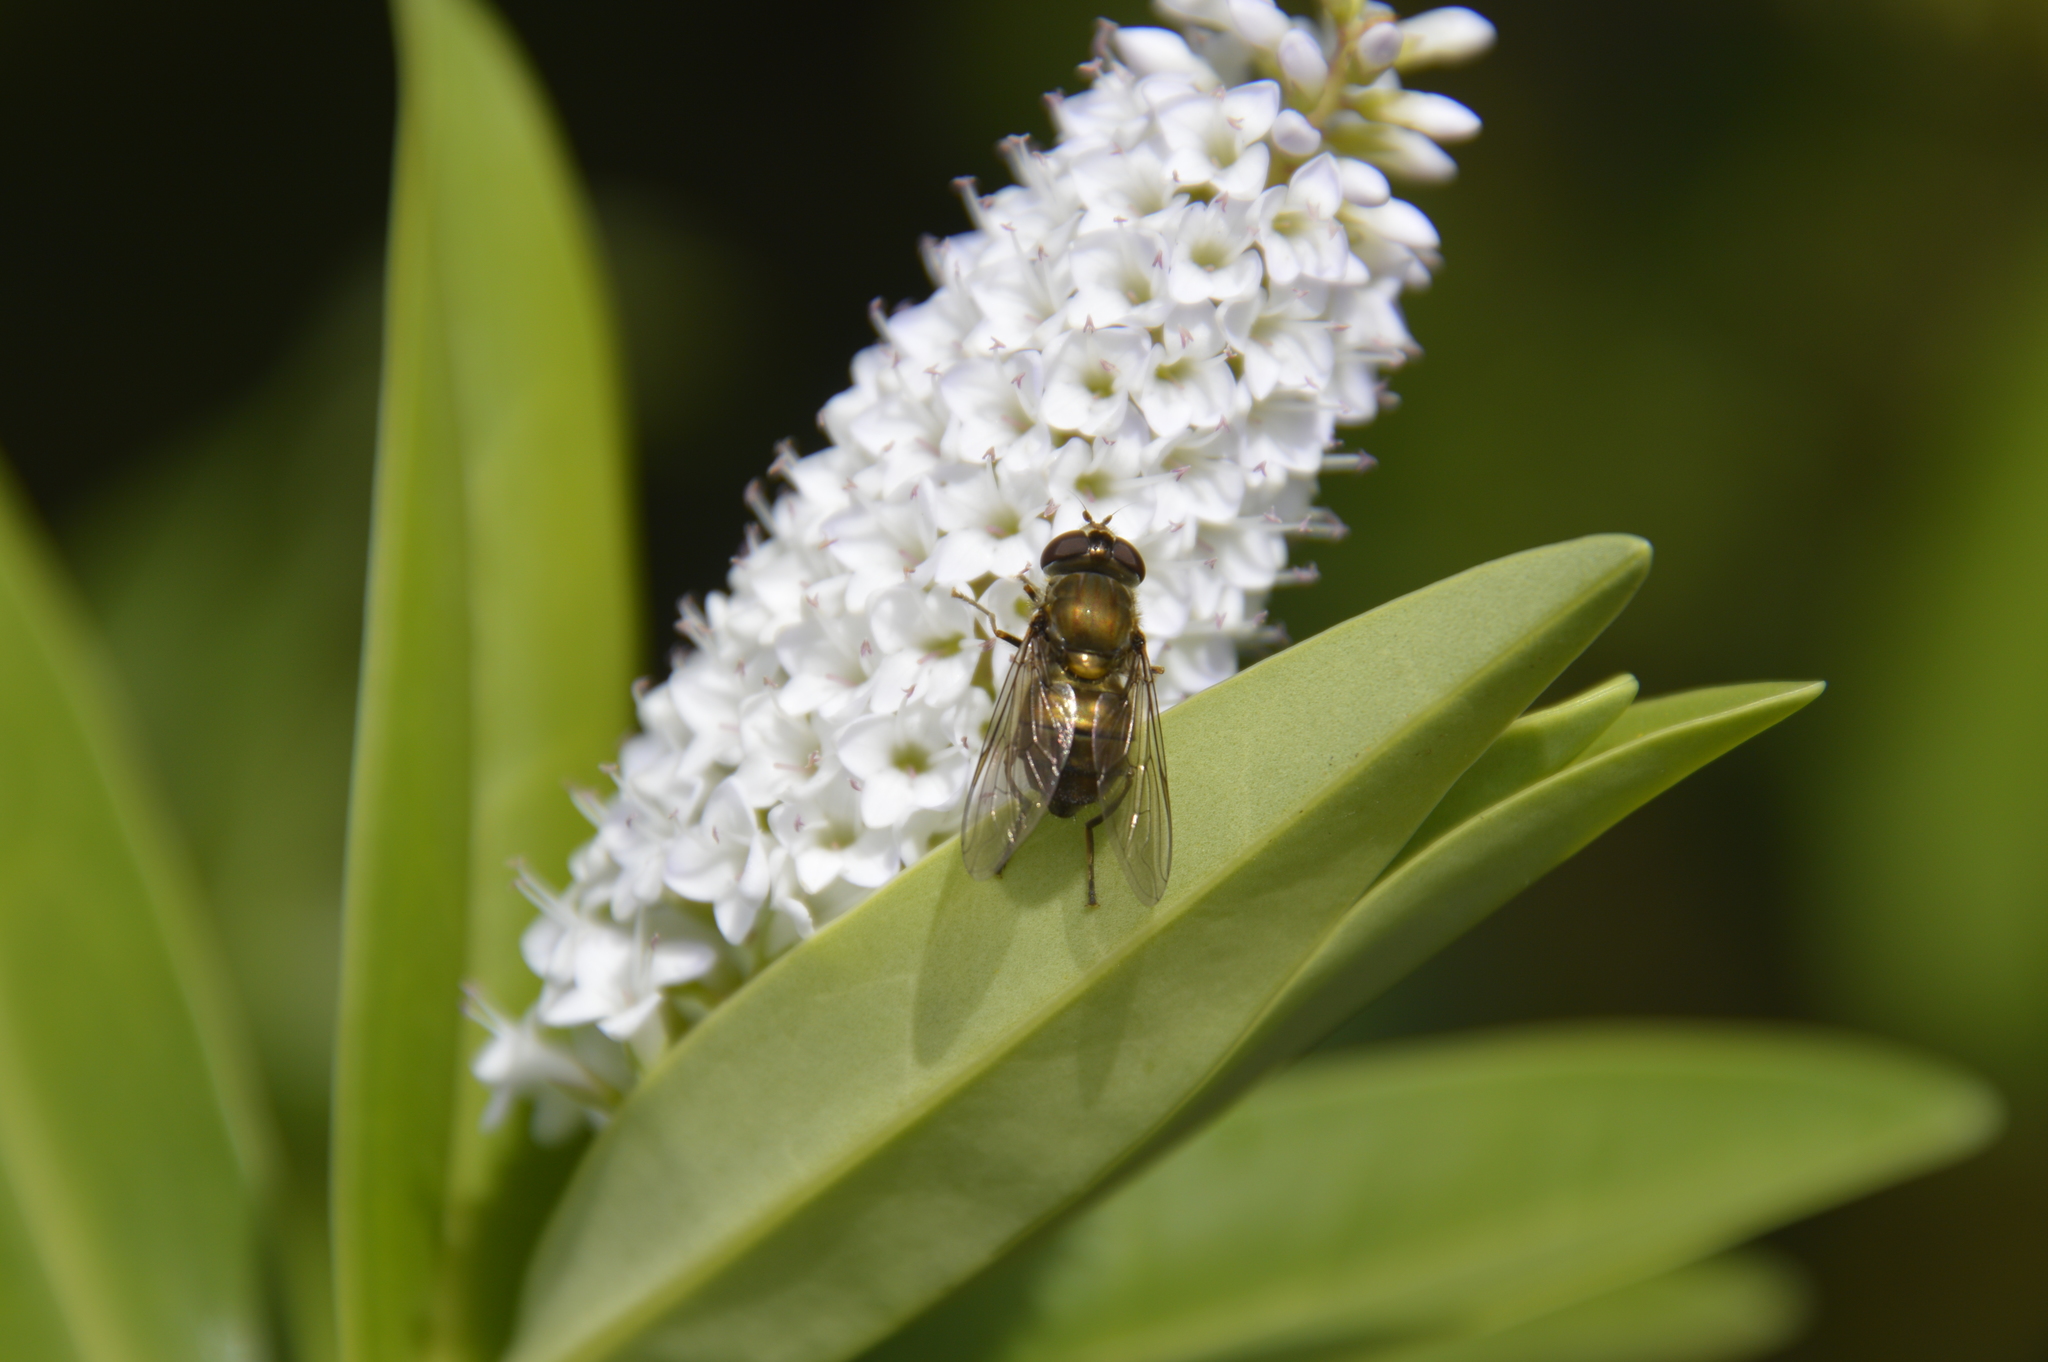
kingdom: Animalia
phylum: Arthropoda
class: Insecta
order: Diptera
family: Syrphidae
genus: Helophilus
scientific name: Helophilus chathamensis
